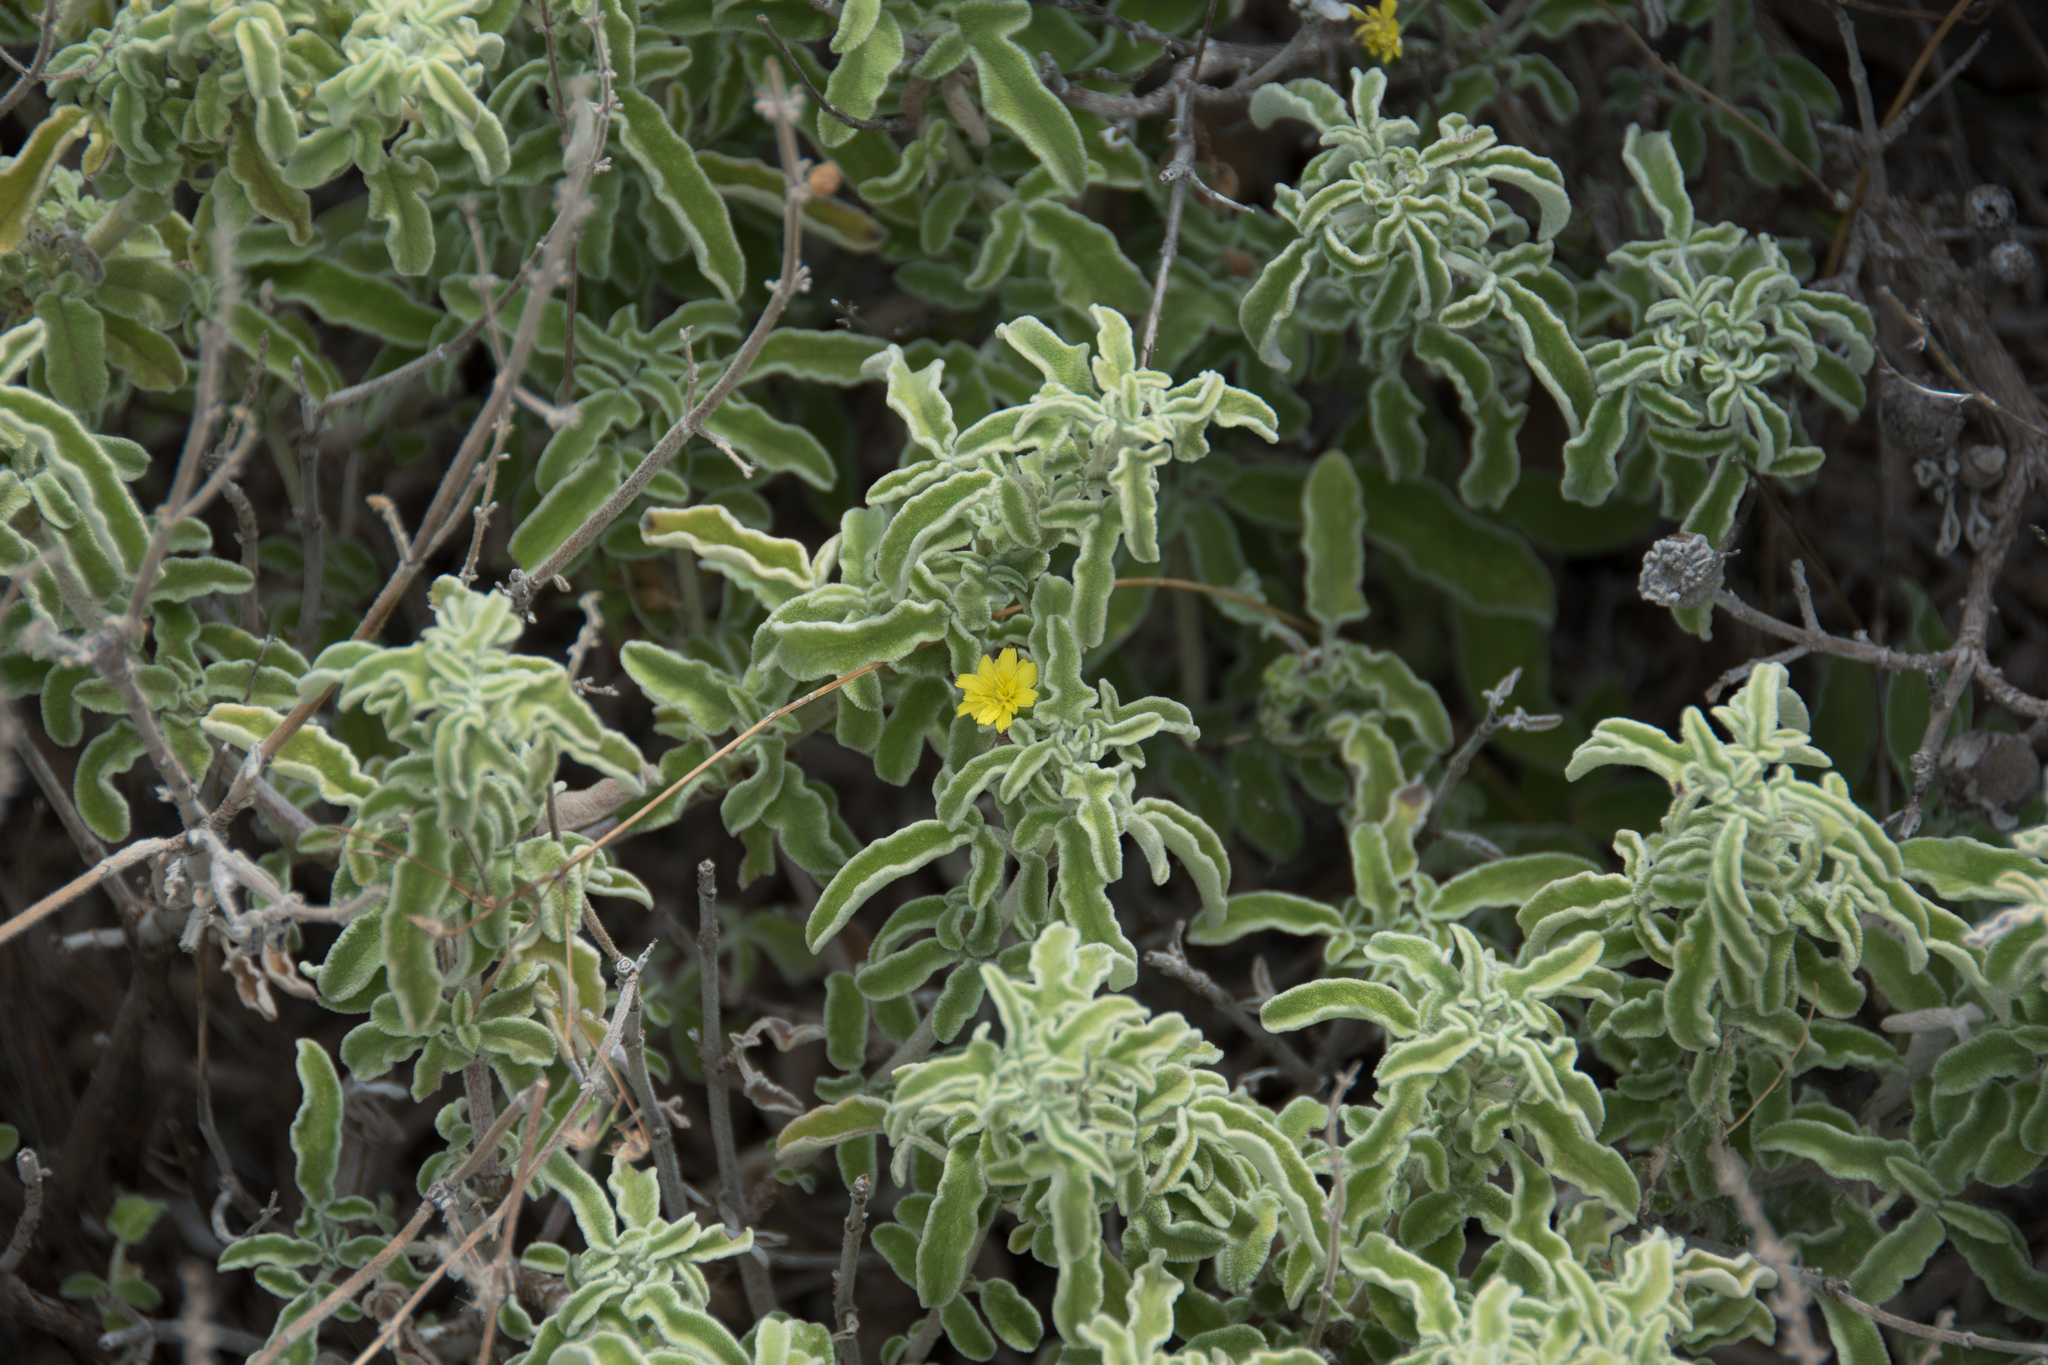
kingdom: Plantae
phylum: Tracheophyta
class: Magnoliopsida
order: Lamiales
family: Lamiaceae
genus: Salvia
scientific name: Salvia fruticosa
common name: Greek sage
